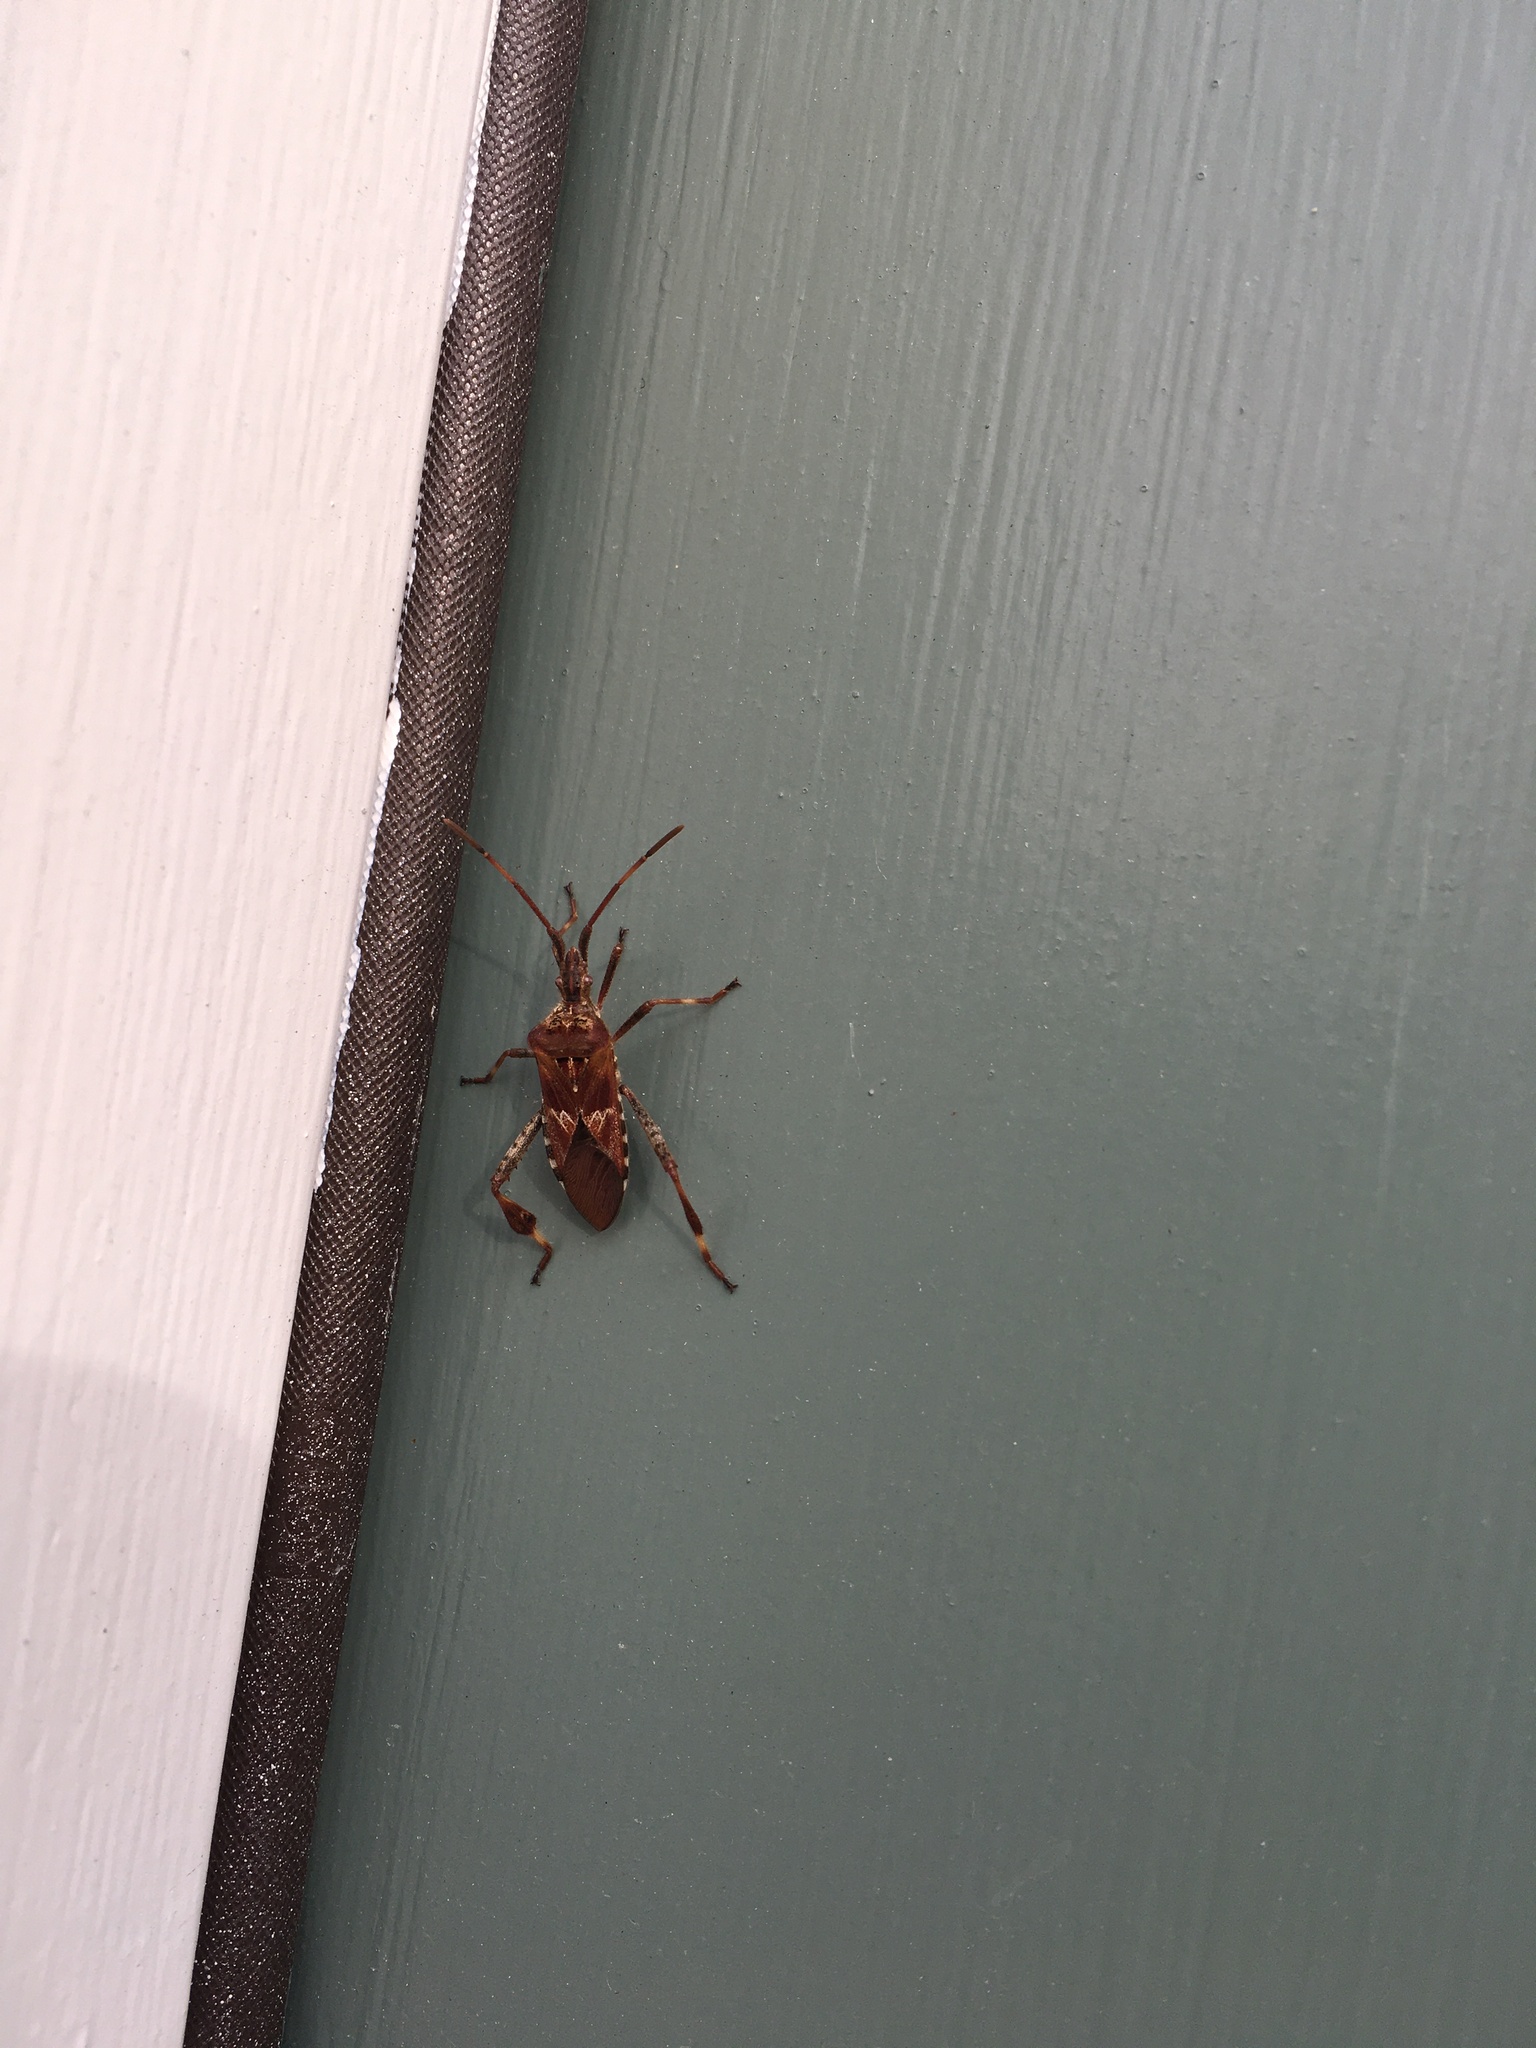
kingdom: Animalia
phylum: Arthropoda
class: Insecta
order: Hemiptera
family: Coreidae
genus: Leptoglossus
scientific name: Leptoglossus occidentalis
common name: Western conifer-seed bug
